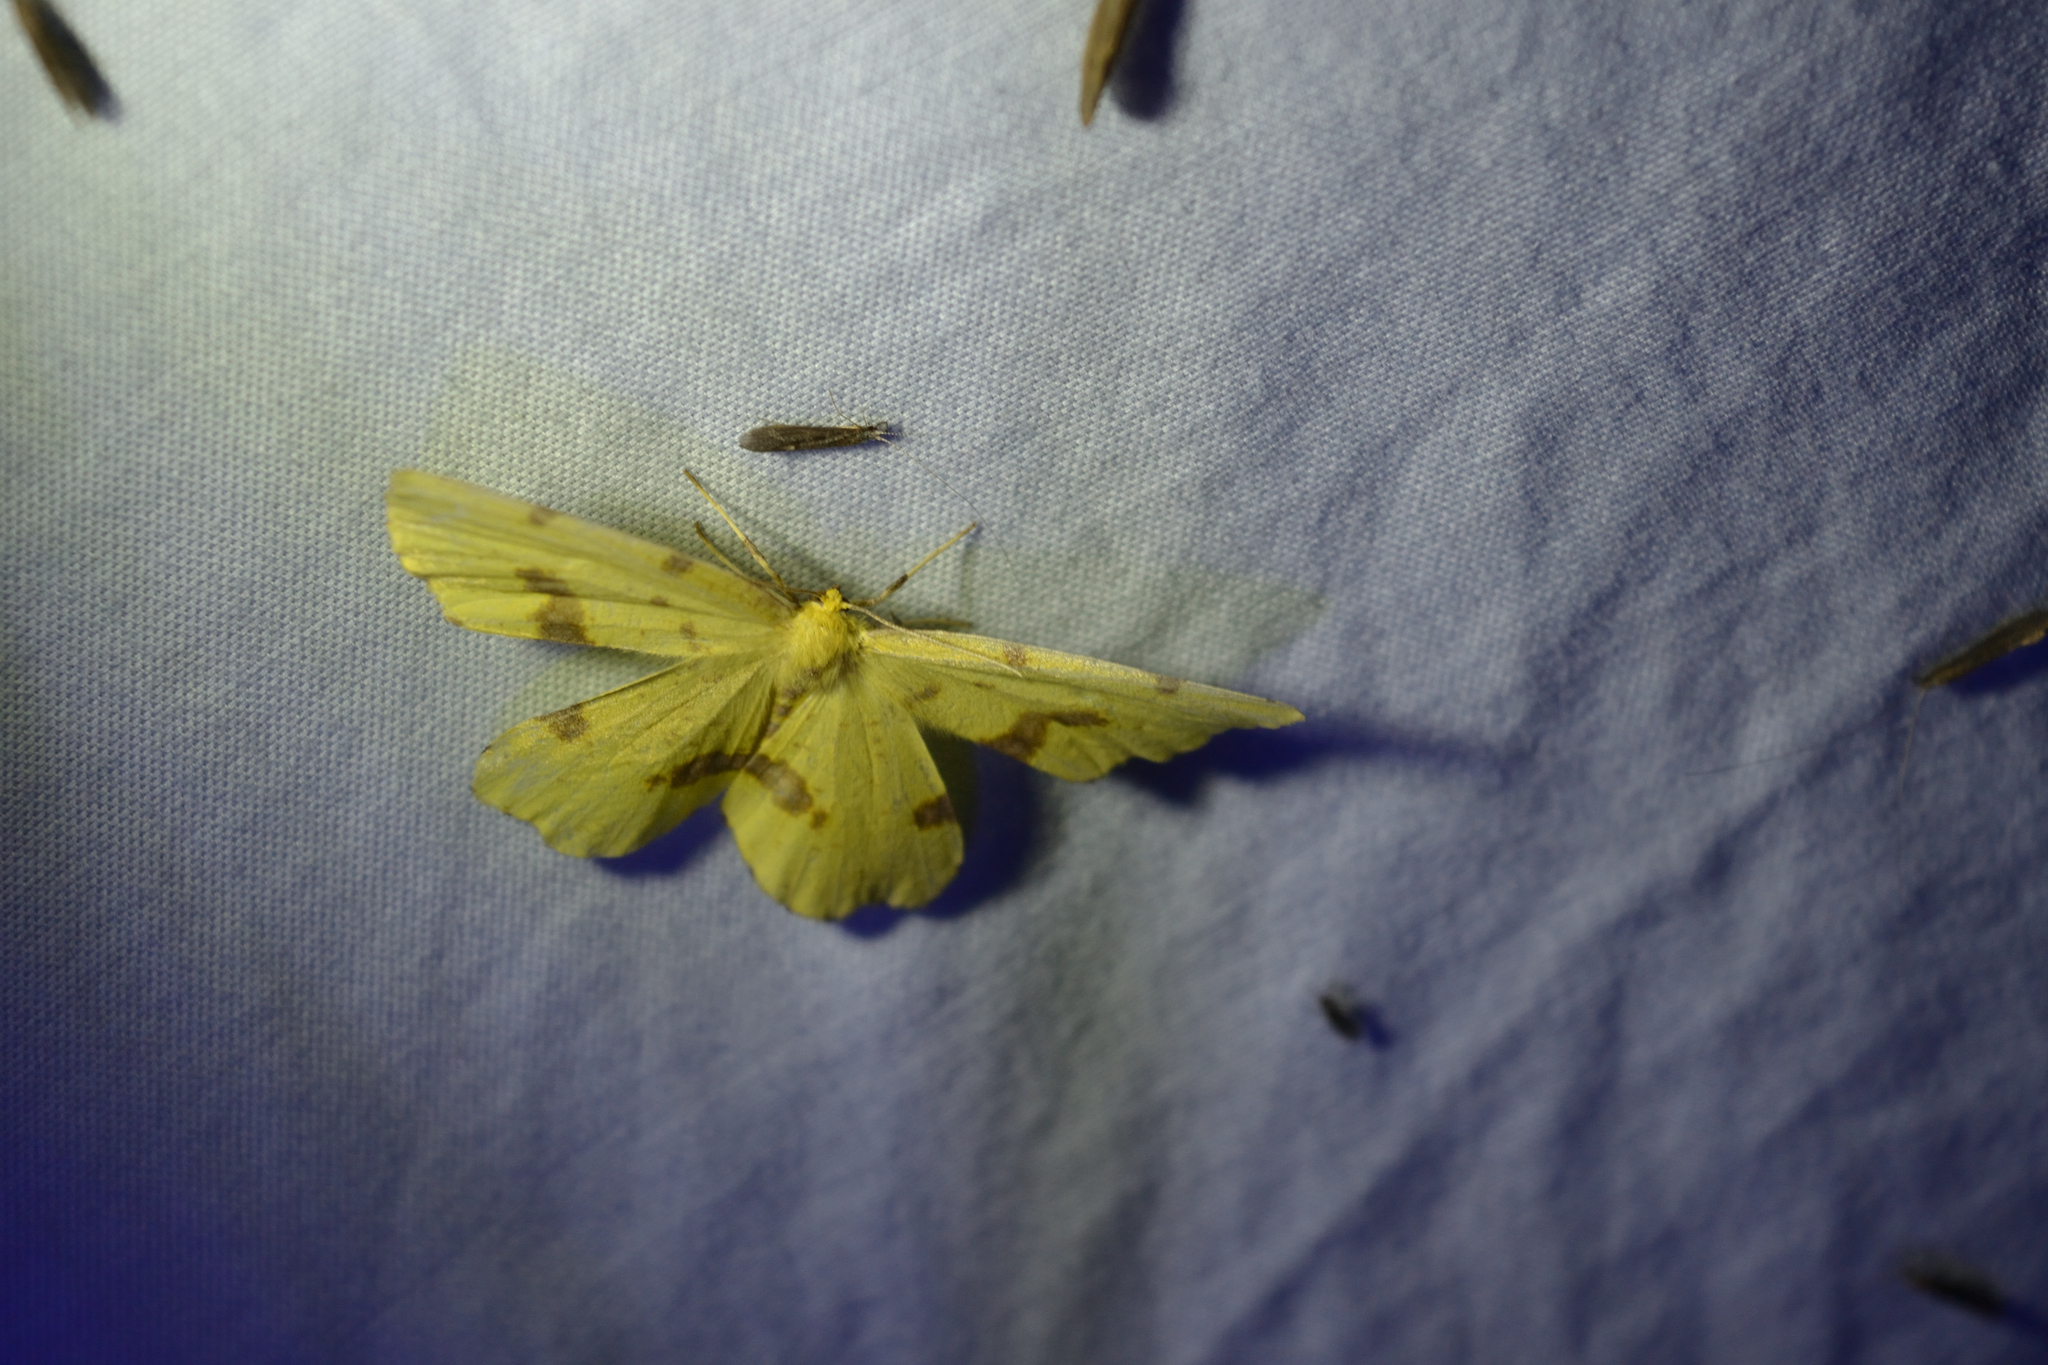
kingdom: Animalia
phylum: Arthropoda
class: Insecta
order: Lepidoptera
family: Geometridae
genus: Xanthotype
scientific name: Xanthotype
